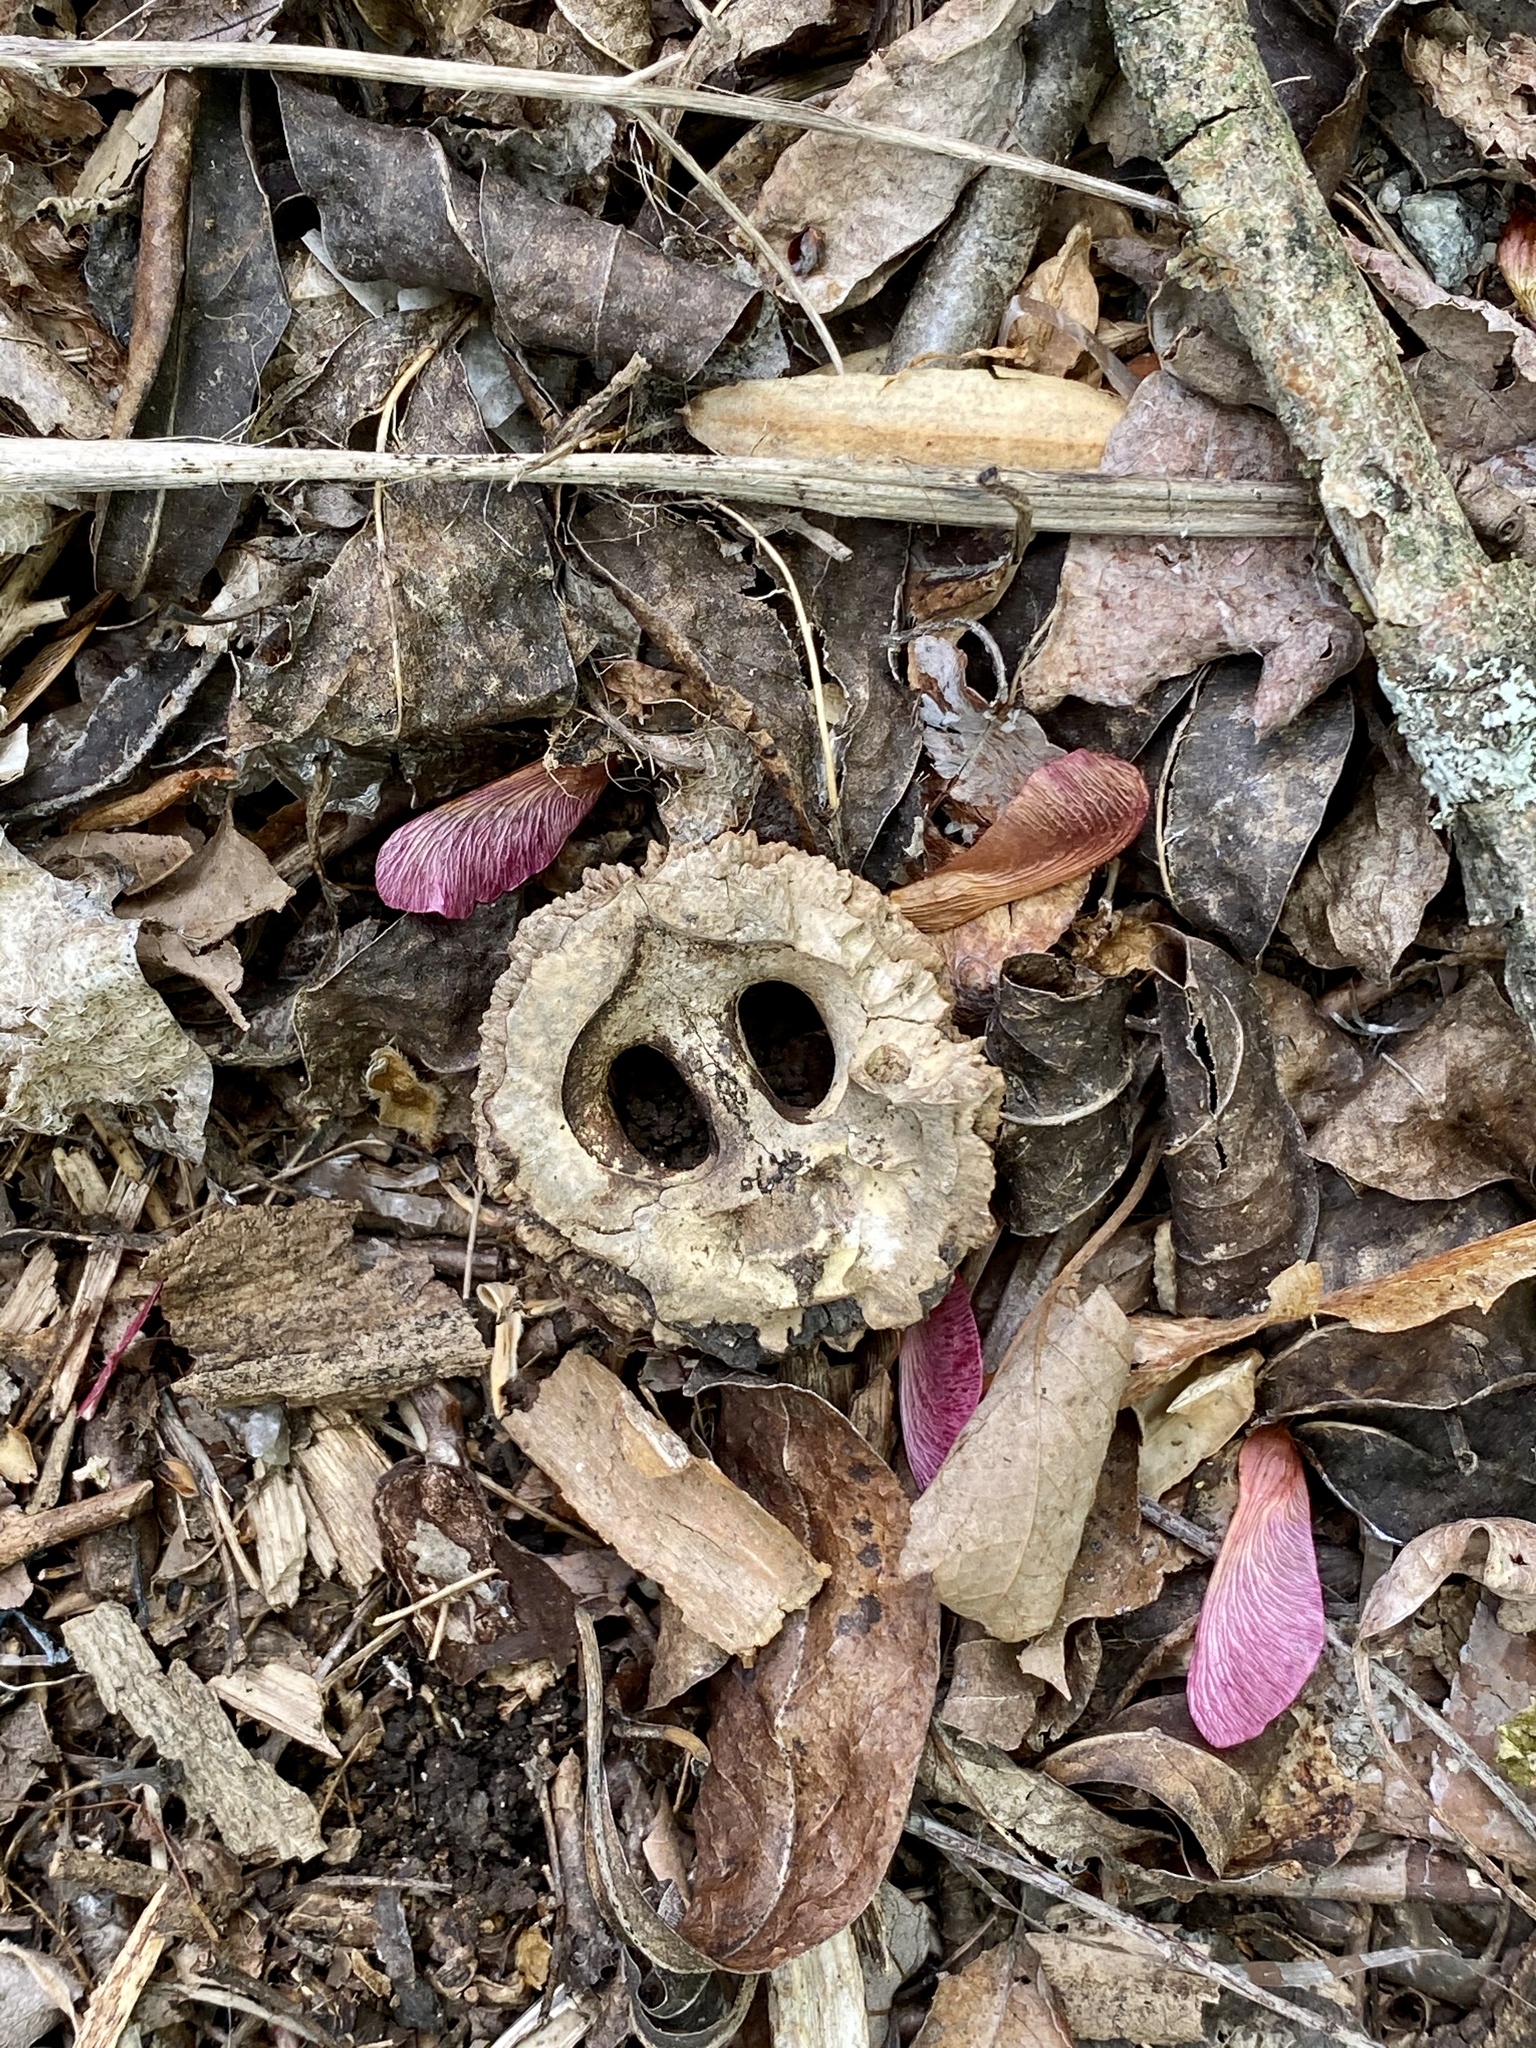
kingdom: Plantae
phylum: Tracheophyta
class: Magnoliopsida
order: Fagales
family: Juglandaceae
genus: Juglans
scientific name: Juglans nigra
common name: Black walnut
